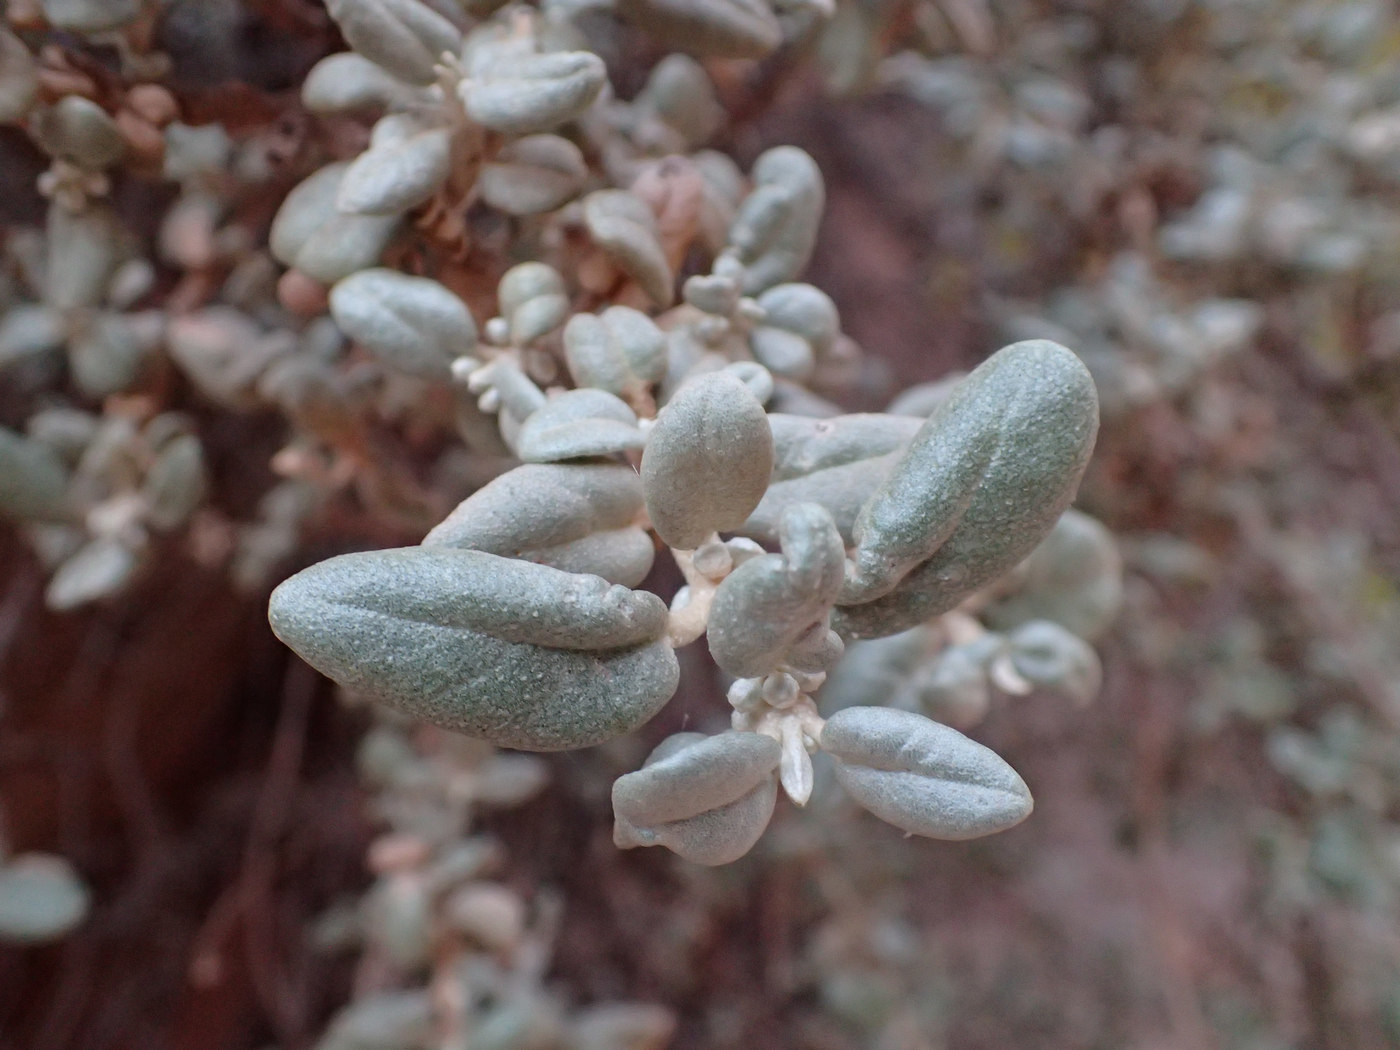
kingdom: Plantae
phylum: Tracheophyta
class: Magnoliopsida
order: Rosales
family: Elaeagnaceae
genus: Shepherdia
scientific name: Shepherdia rotundifolia
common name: Silverscale
